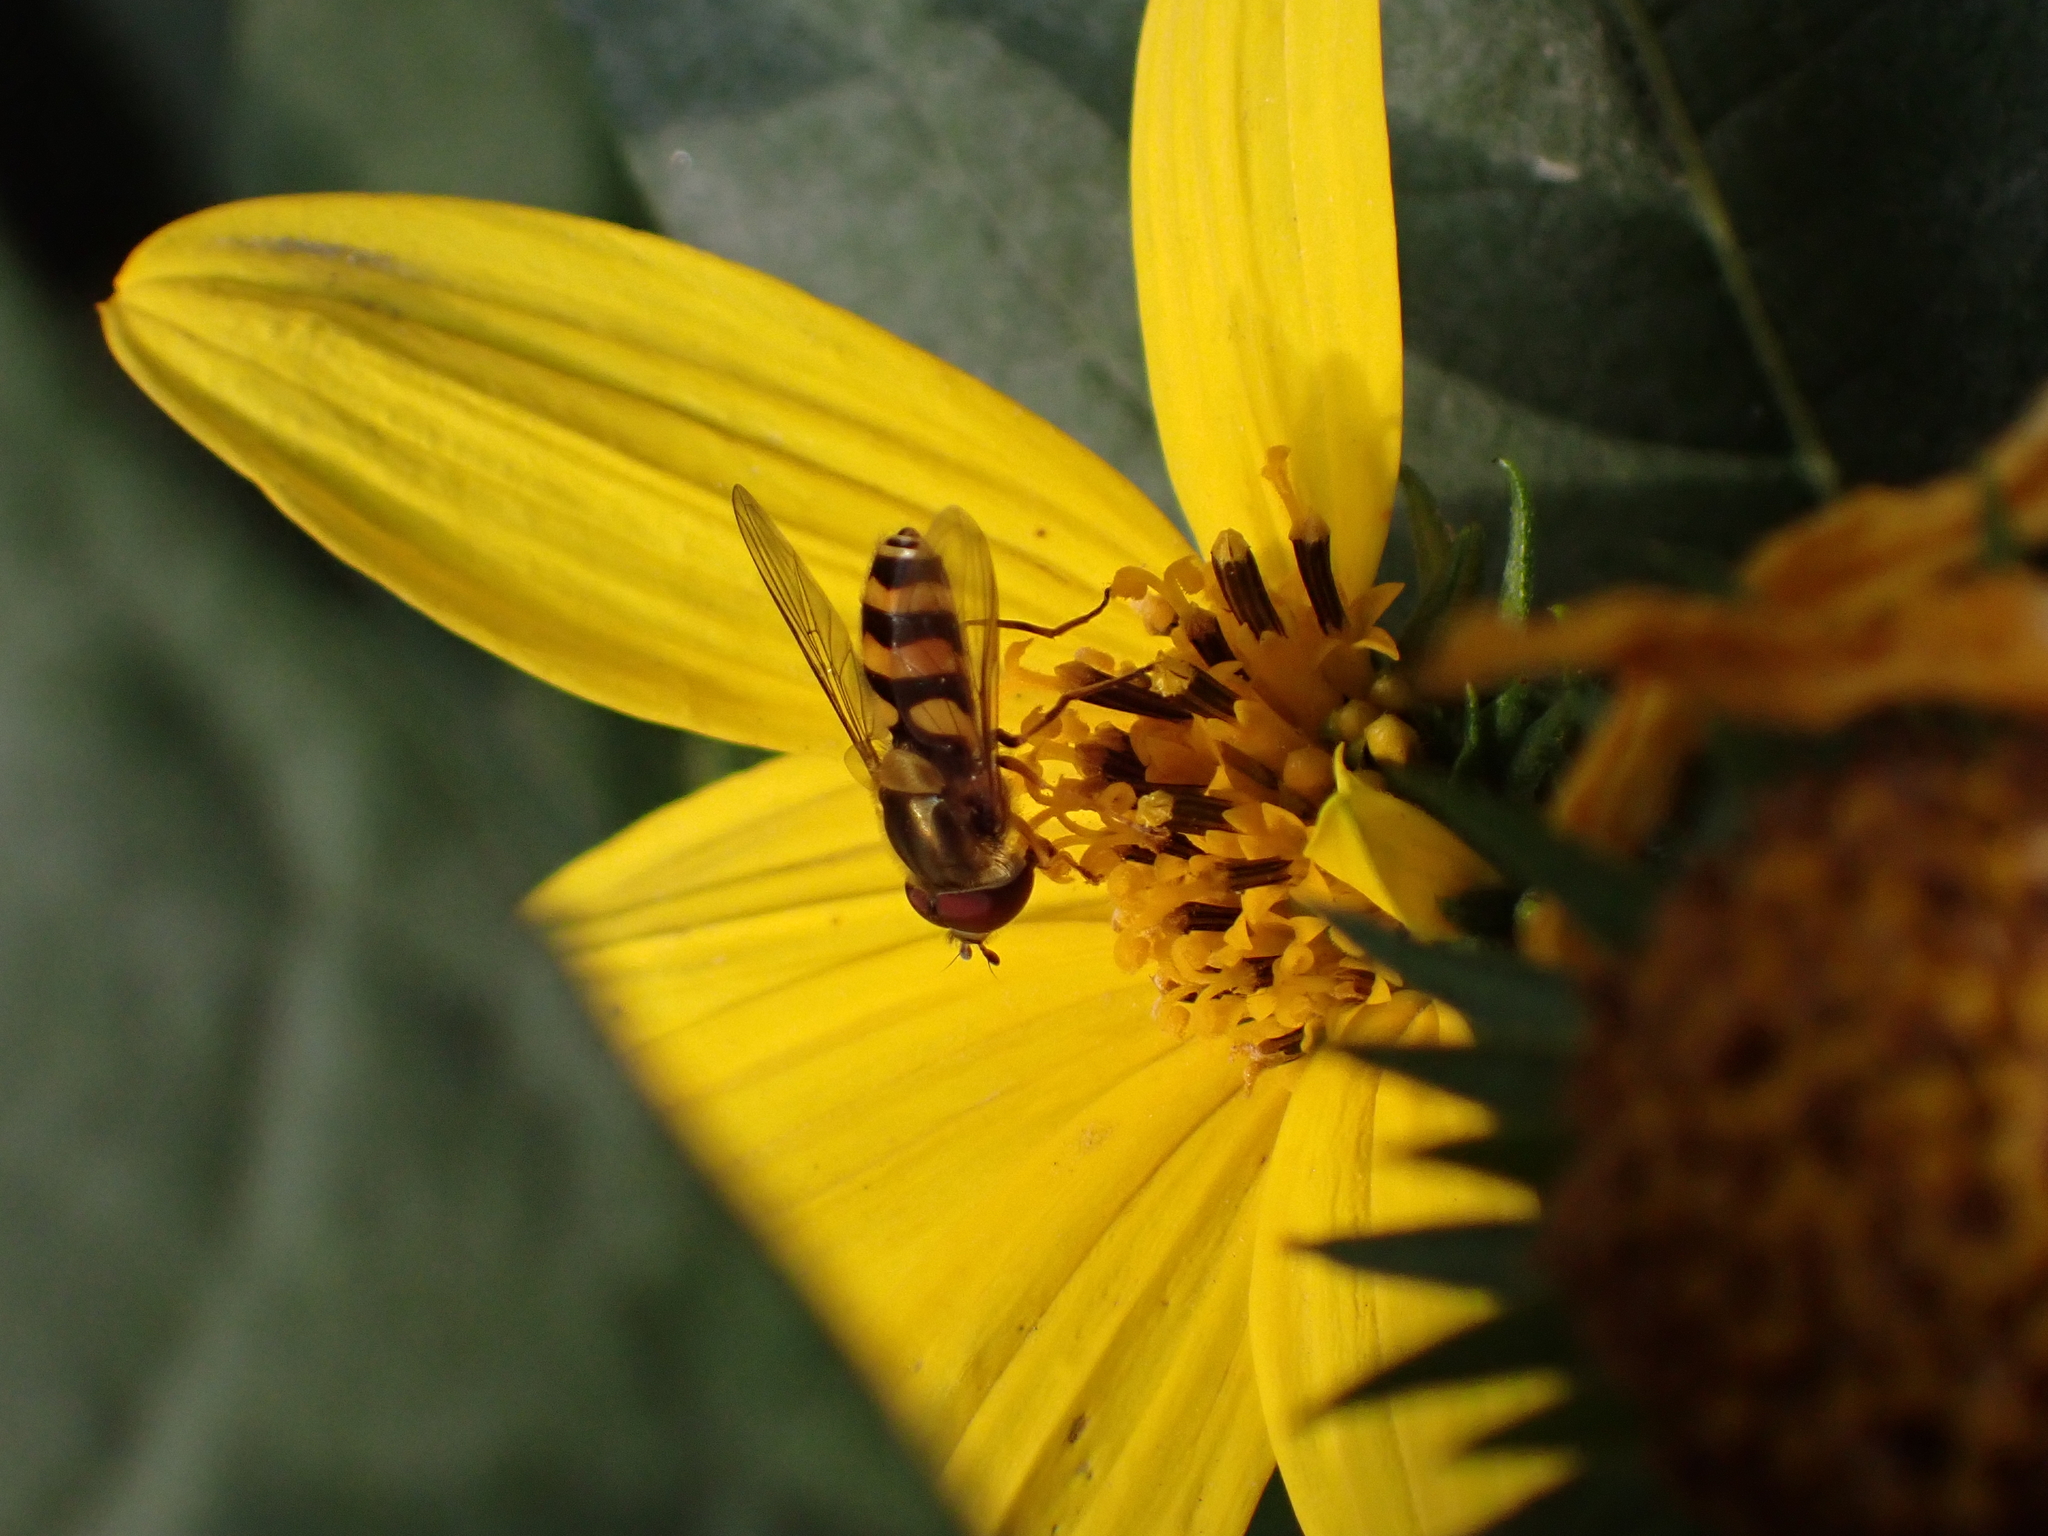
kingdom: Animalia
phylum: Arthropoda
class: Insecta
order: Diptera
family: Syrphidae
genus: Syrphus
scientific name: Syrphus
